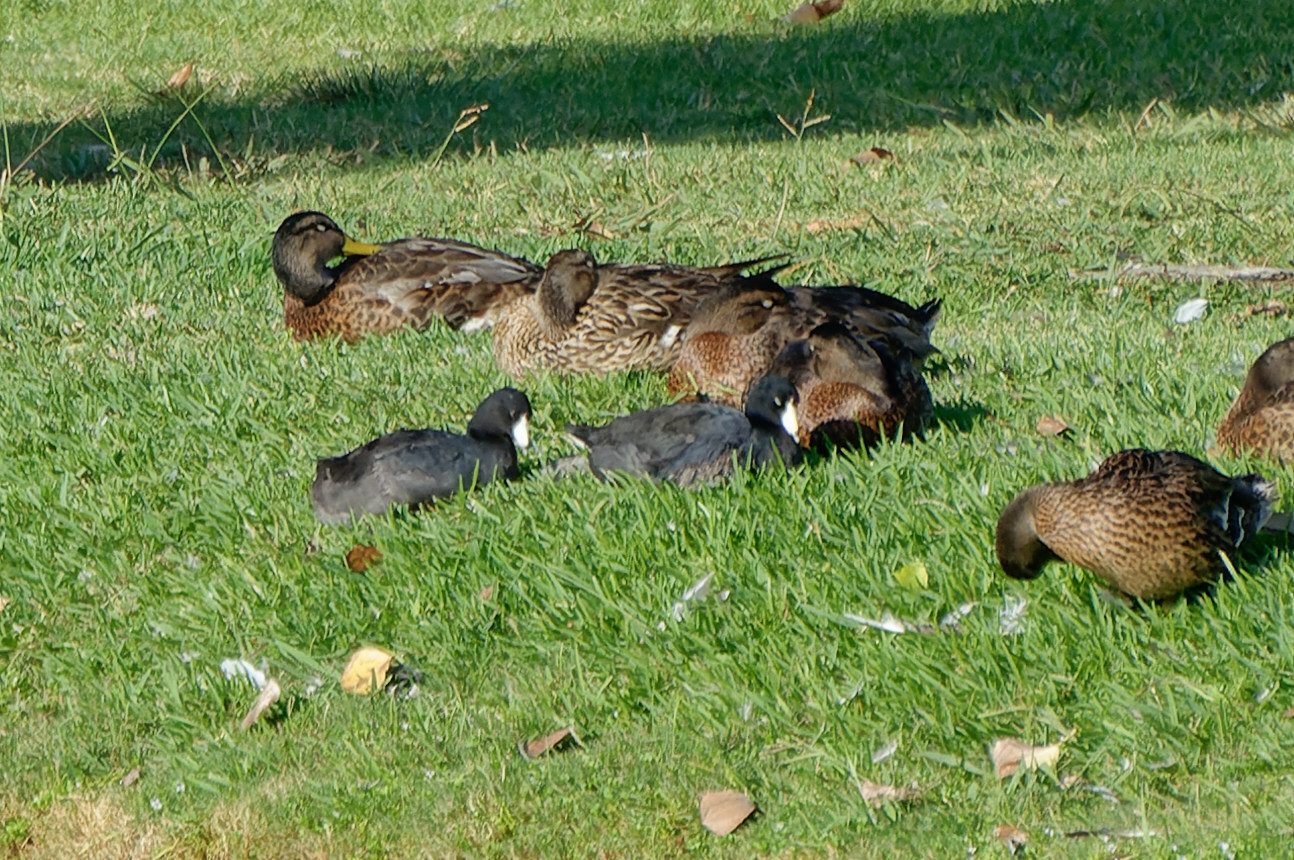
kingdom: Animalia
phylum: Chordata
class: Aves
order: Gruiformes
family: Rallidae
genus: Fulica
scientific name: Fulica americana
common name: American coot
